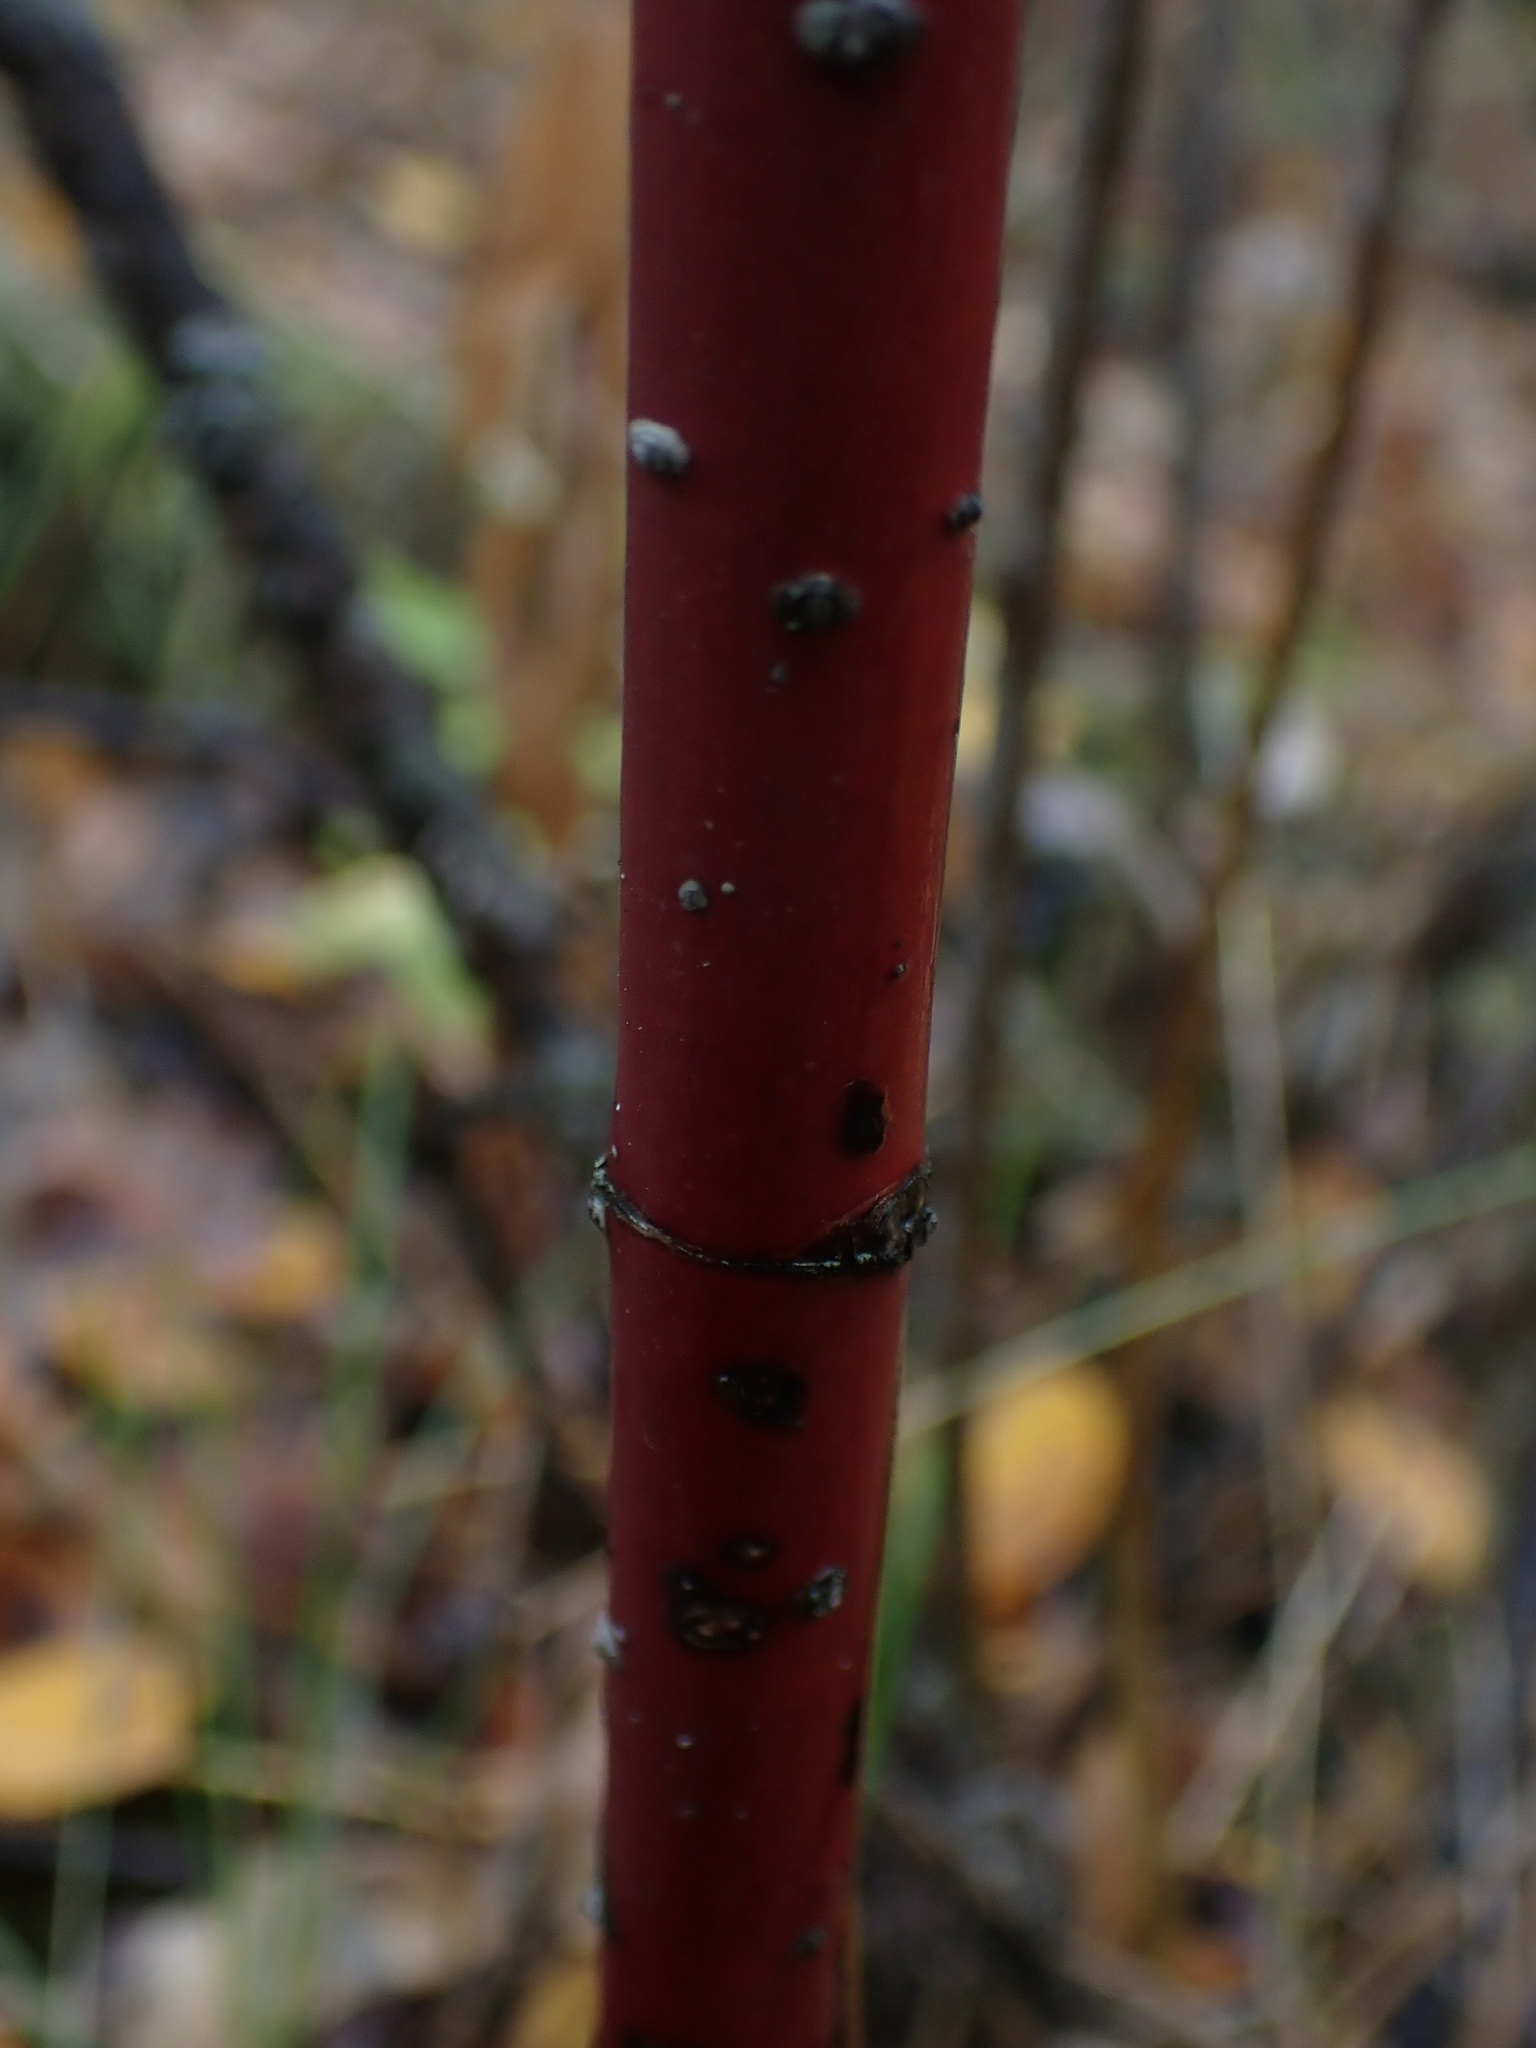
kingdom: Plantae
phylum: Tracheophyta
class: Magnoliopsida
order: Cornales
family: Cornaceae
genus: Cornus
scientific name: Cornus sericea
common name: Red-osier dogwood
